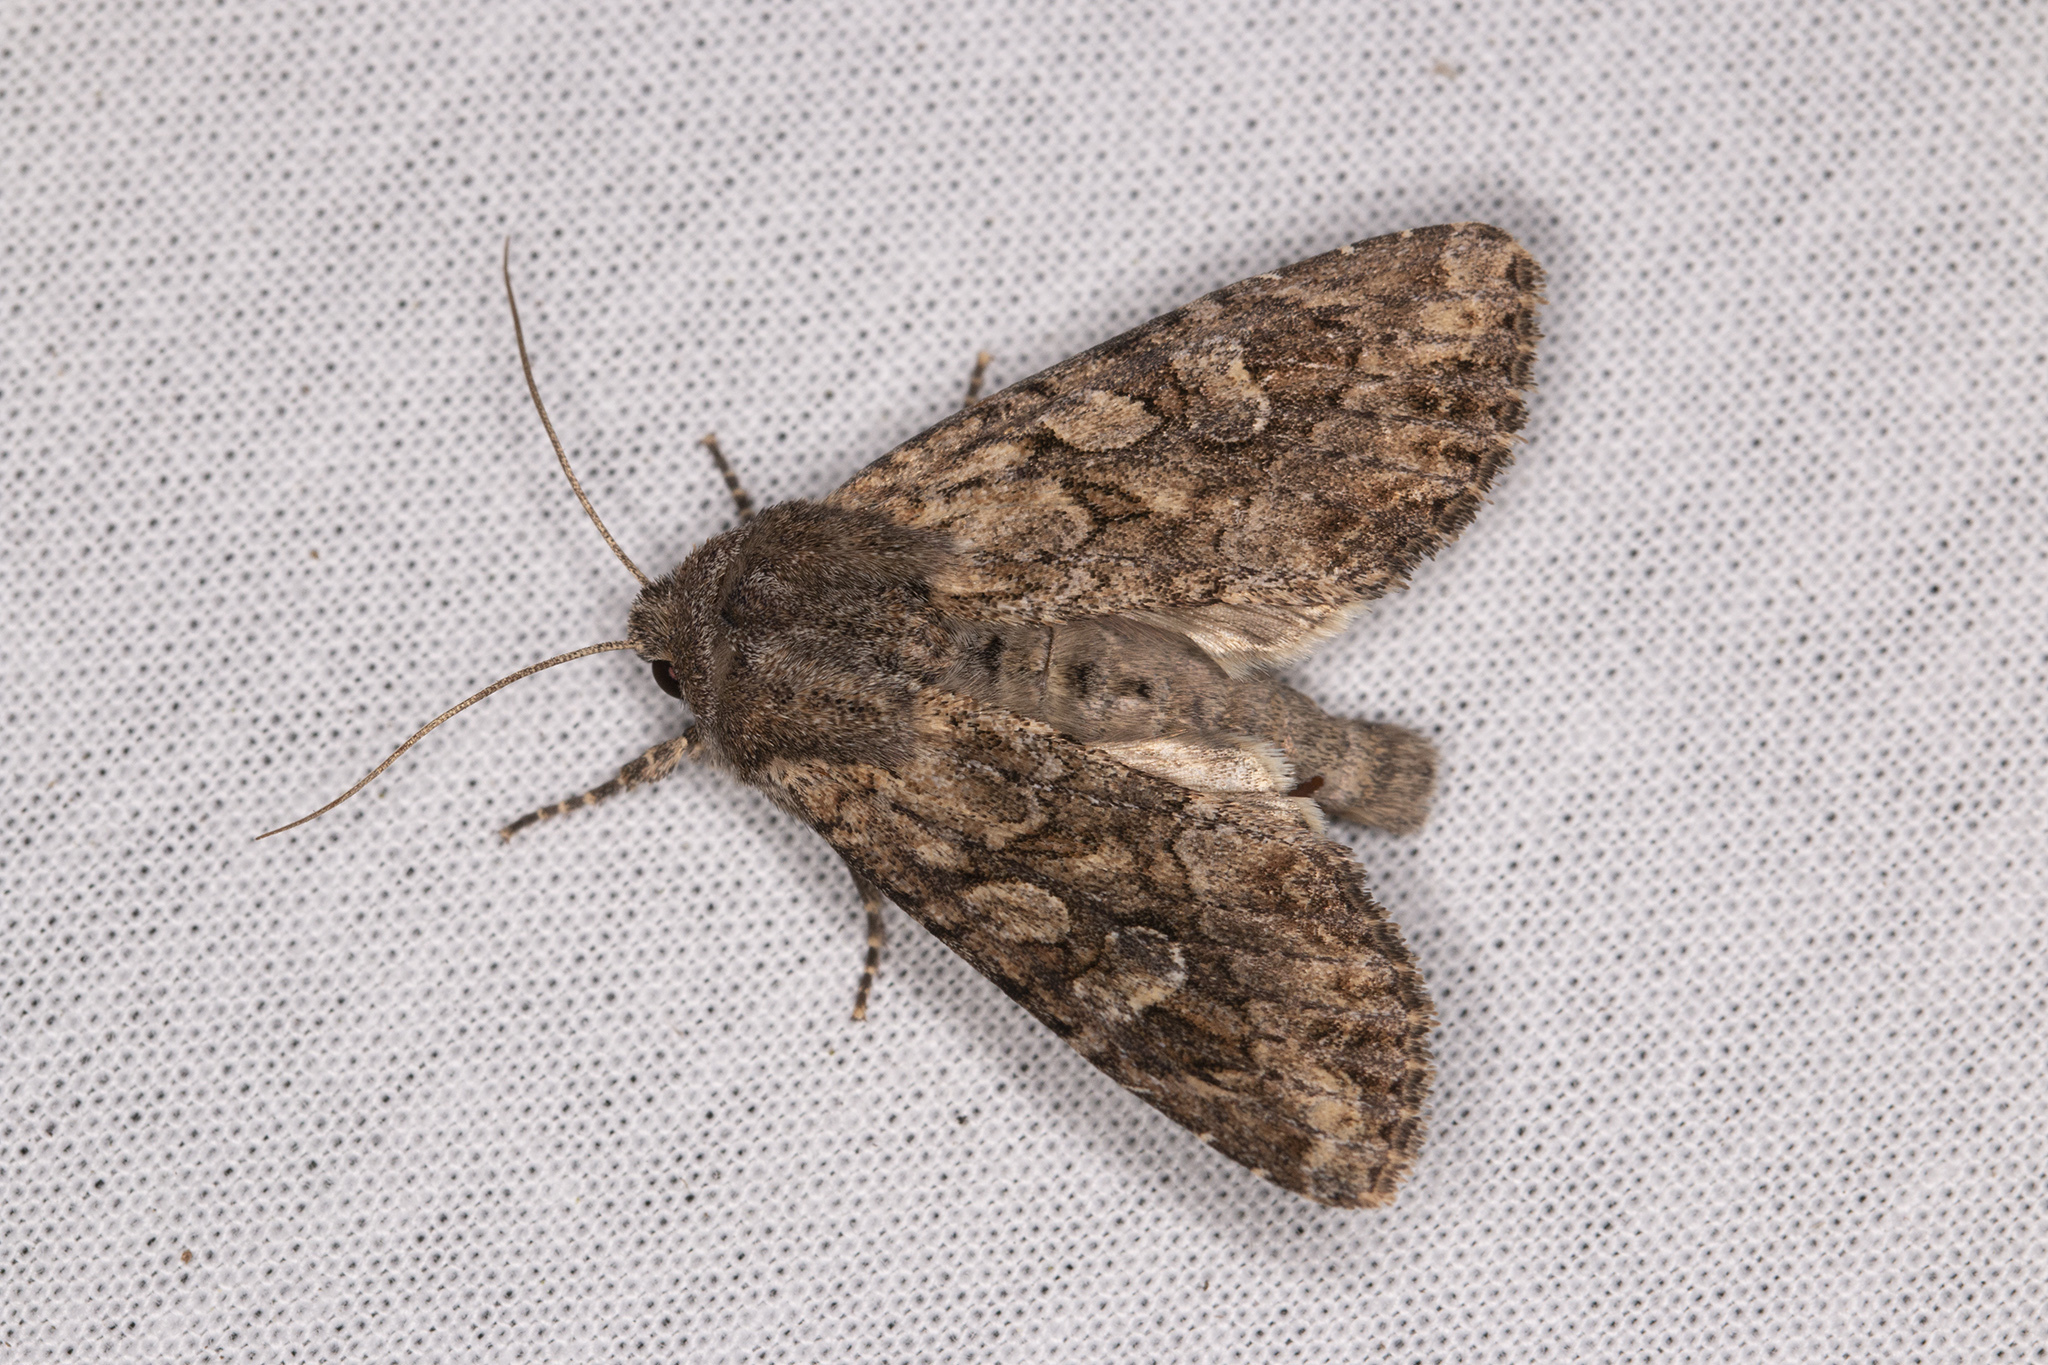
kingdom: Animalia
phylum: Arthropoda
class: Insecta
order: Lepidoptera
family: Noctuidae
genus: Apamea
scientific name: Apamea anceps
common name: Large nutmeg
